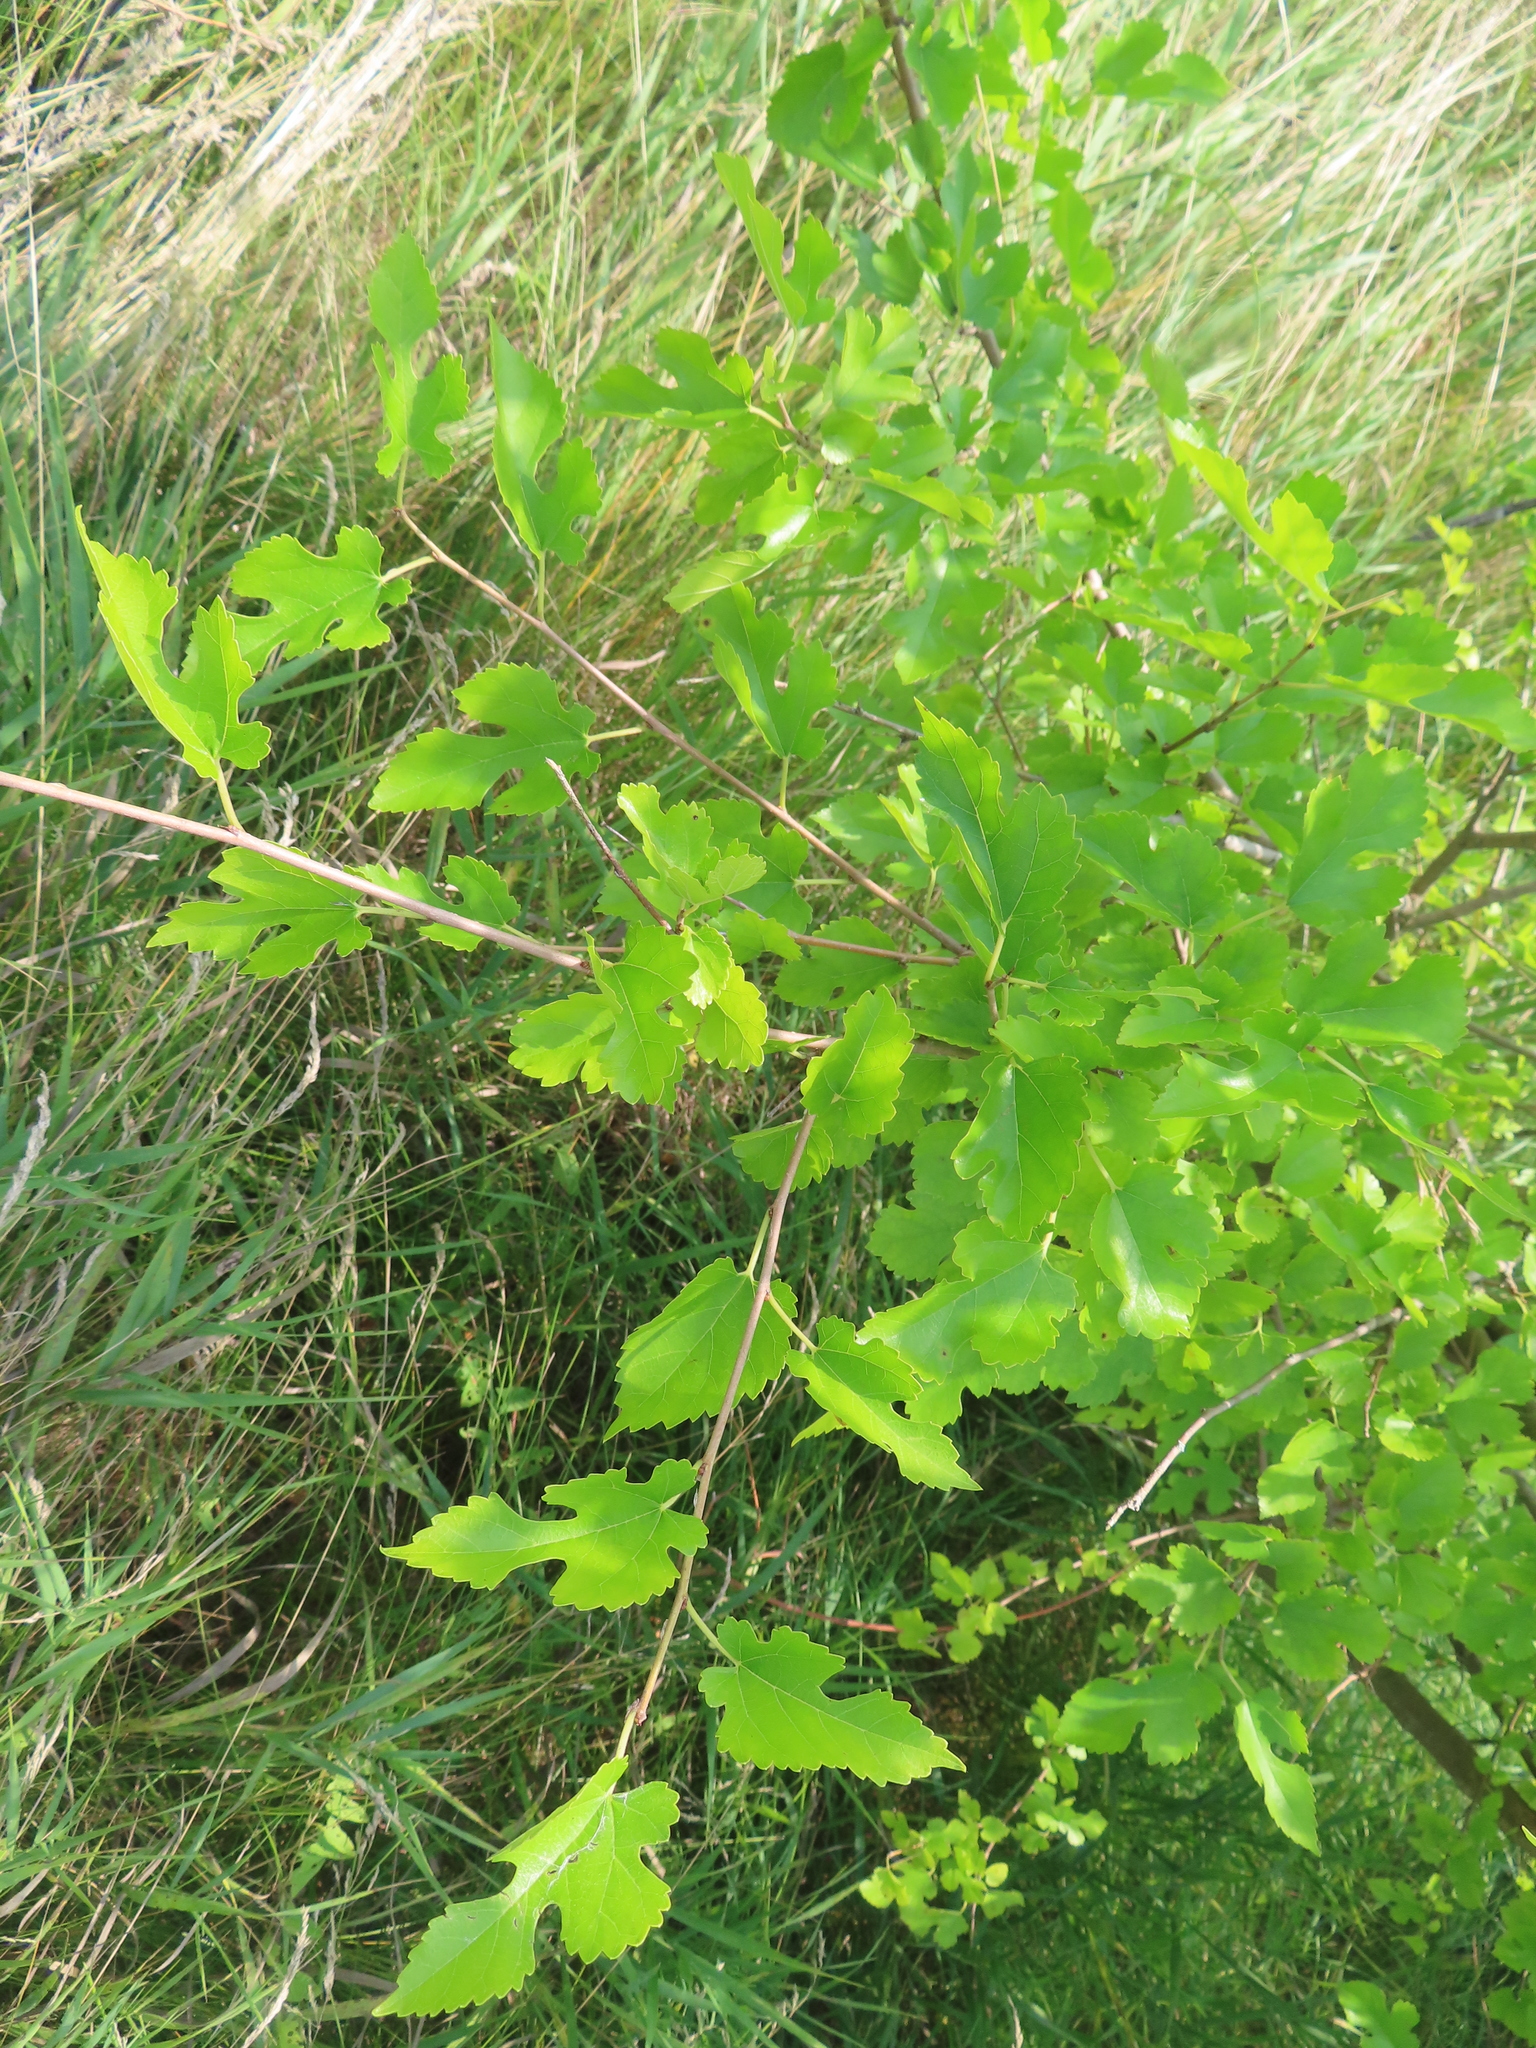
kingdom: Plantae
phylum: Tracheophyta
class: Magnoliopsida
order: Rosales
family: Moraceae
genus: Morus
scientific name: Morus alba
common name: White mulberry
